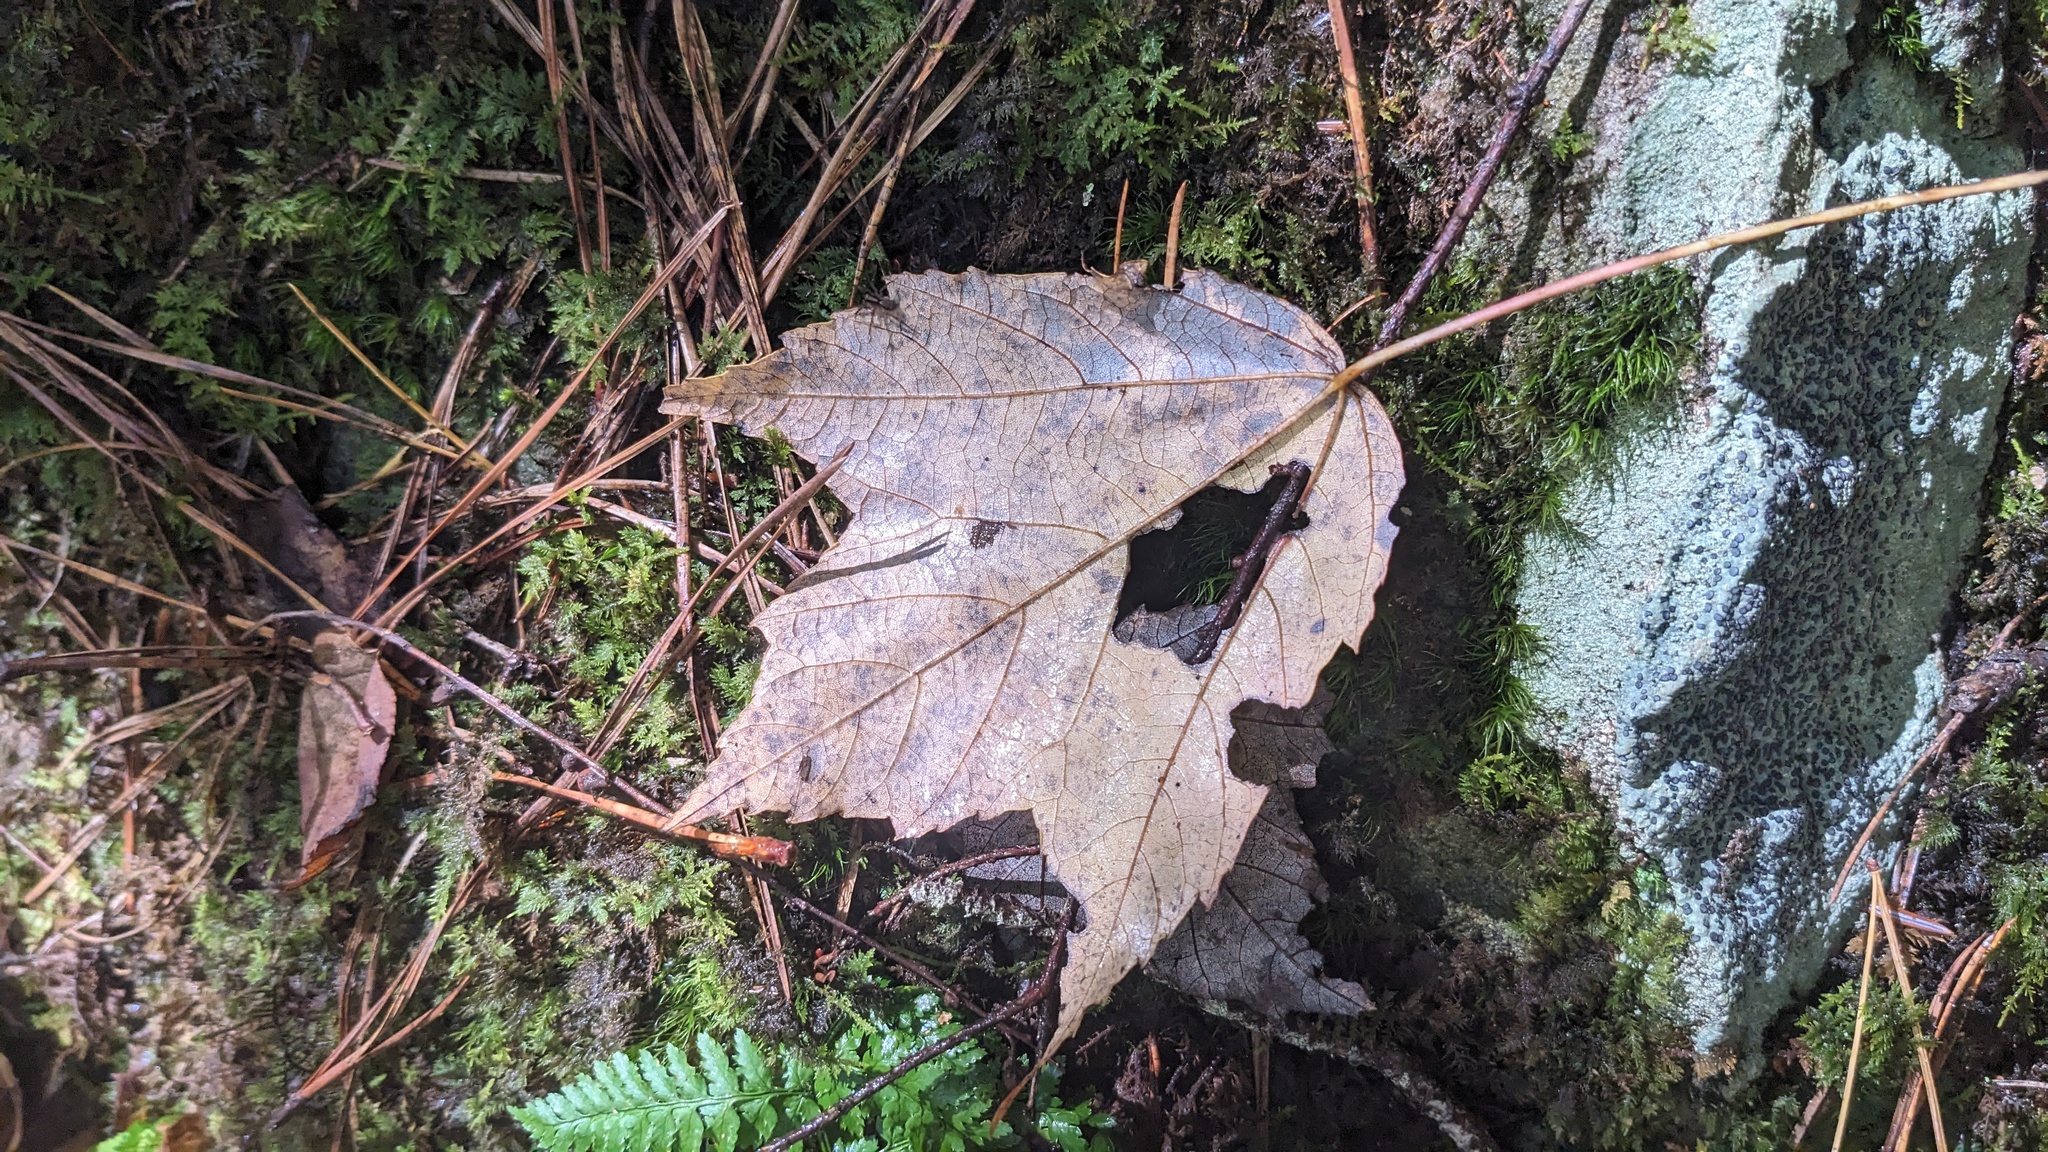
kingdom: Plantae
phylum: Tracheophyta
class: Magnoliopsida
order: Sapindales
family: Sapindaceae
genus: Acer
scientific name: Acer rubrum
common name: Red maple
